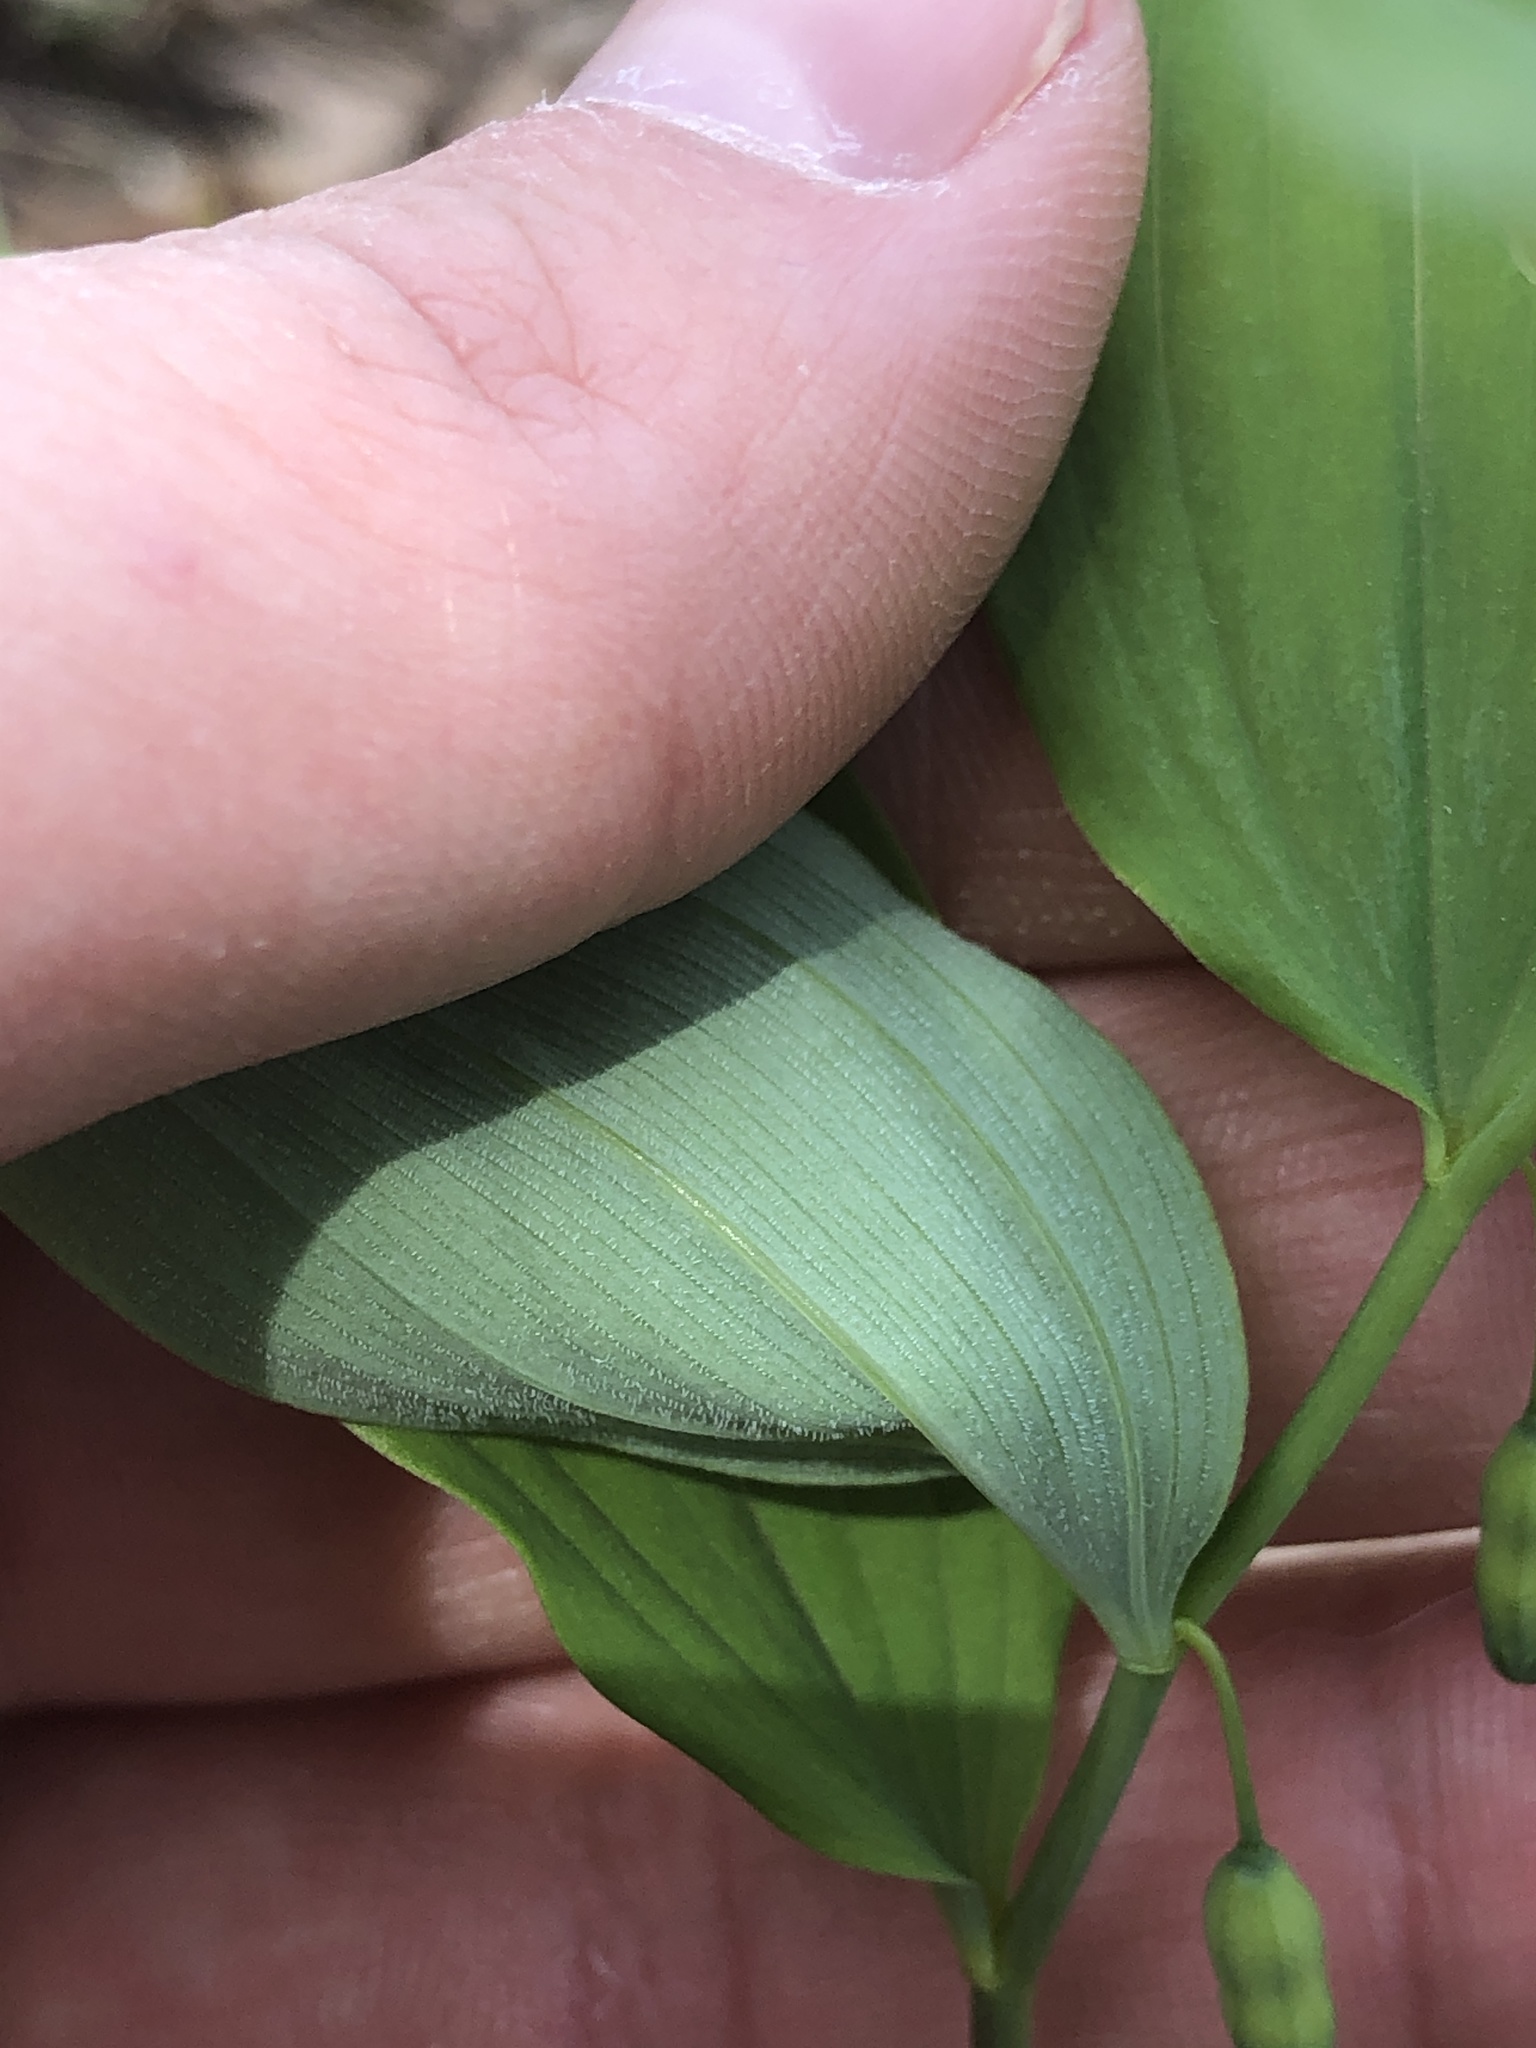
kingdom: Plantae
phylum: Tracheophyta
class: Liliopsida
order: Asparagales
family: Asparagaceae
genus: Polygonatum
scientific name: Polygonatum pubescens
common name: Downy solomon's seal
